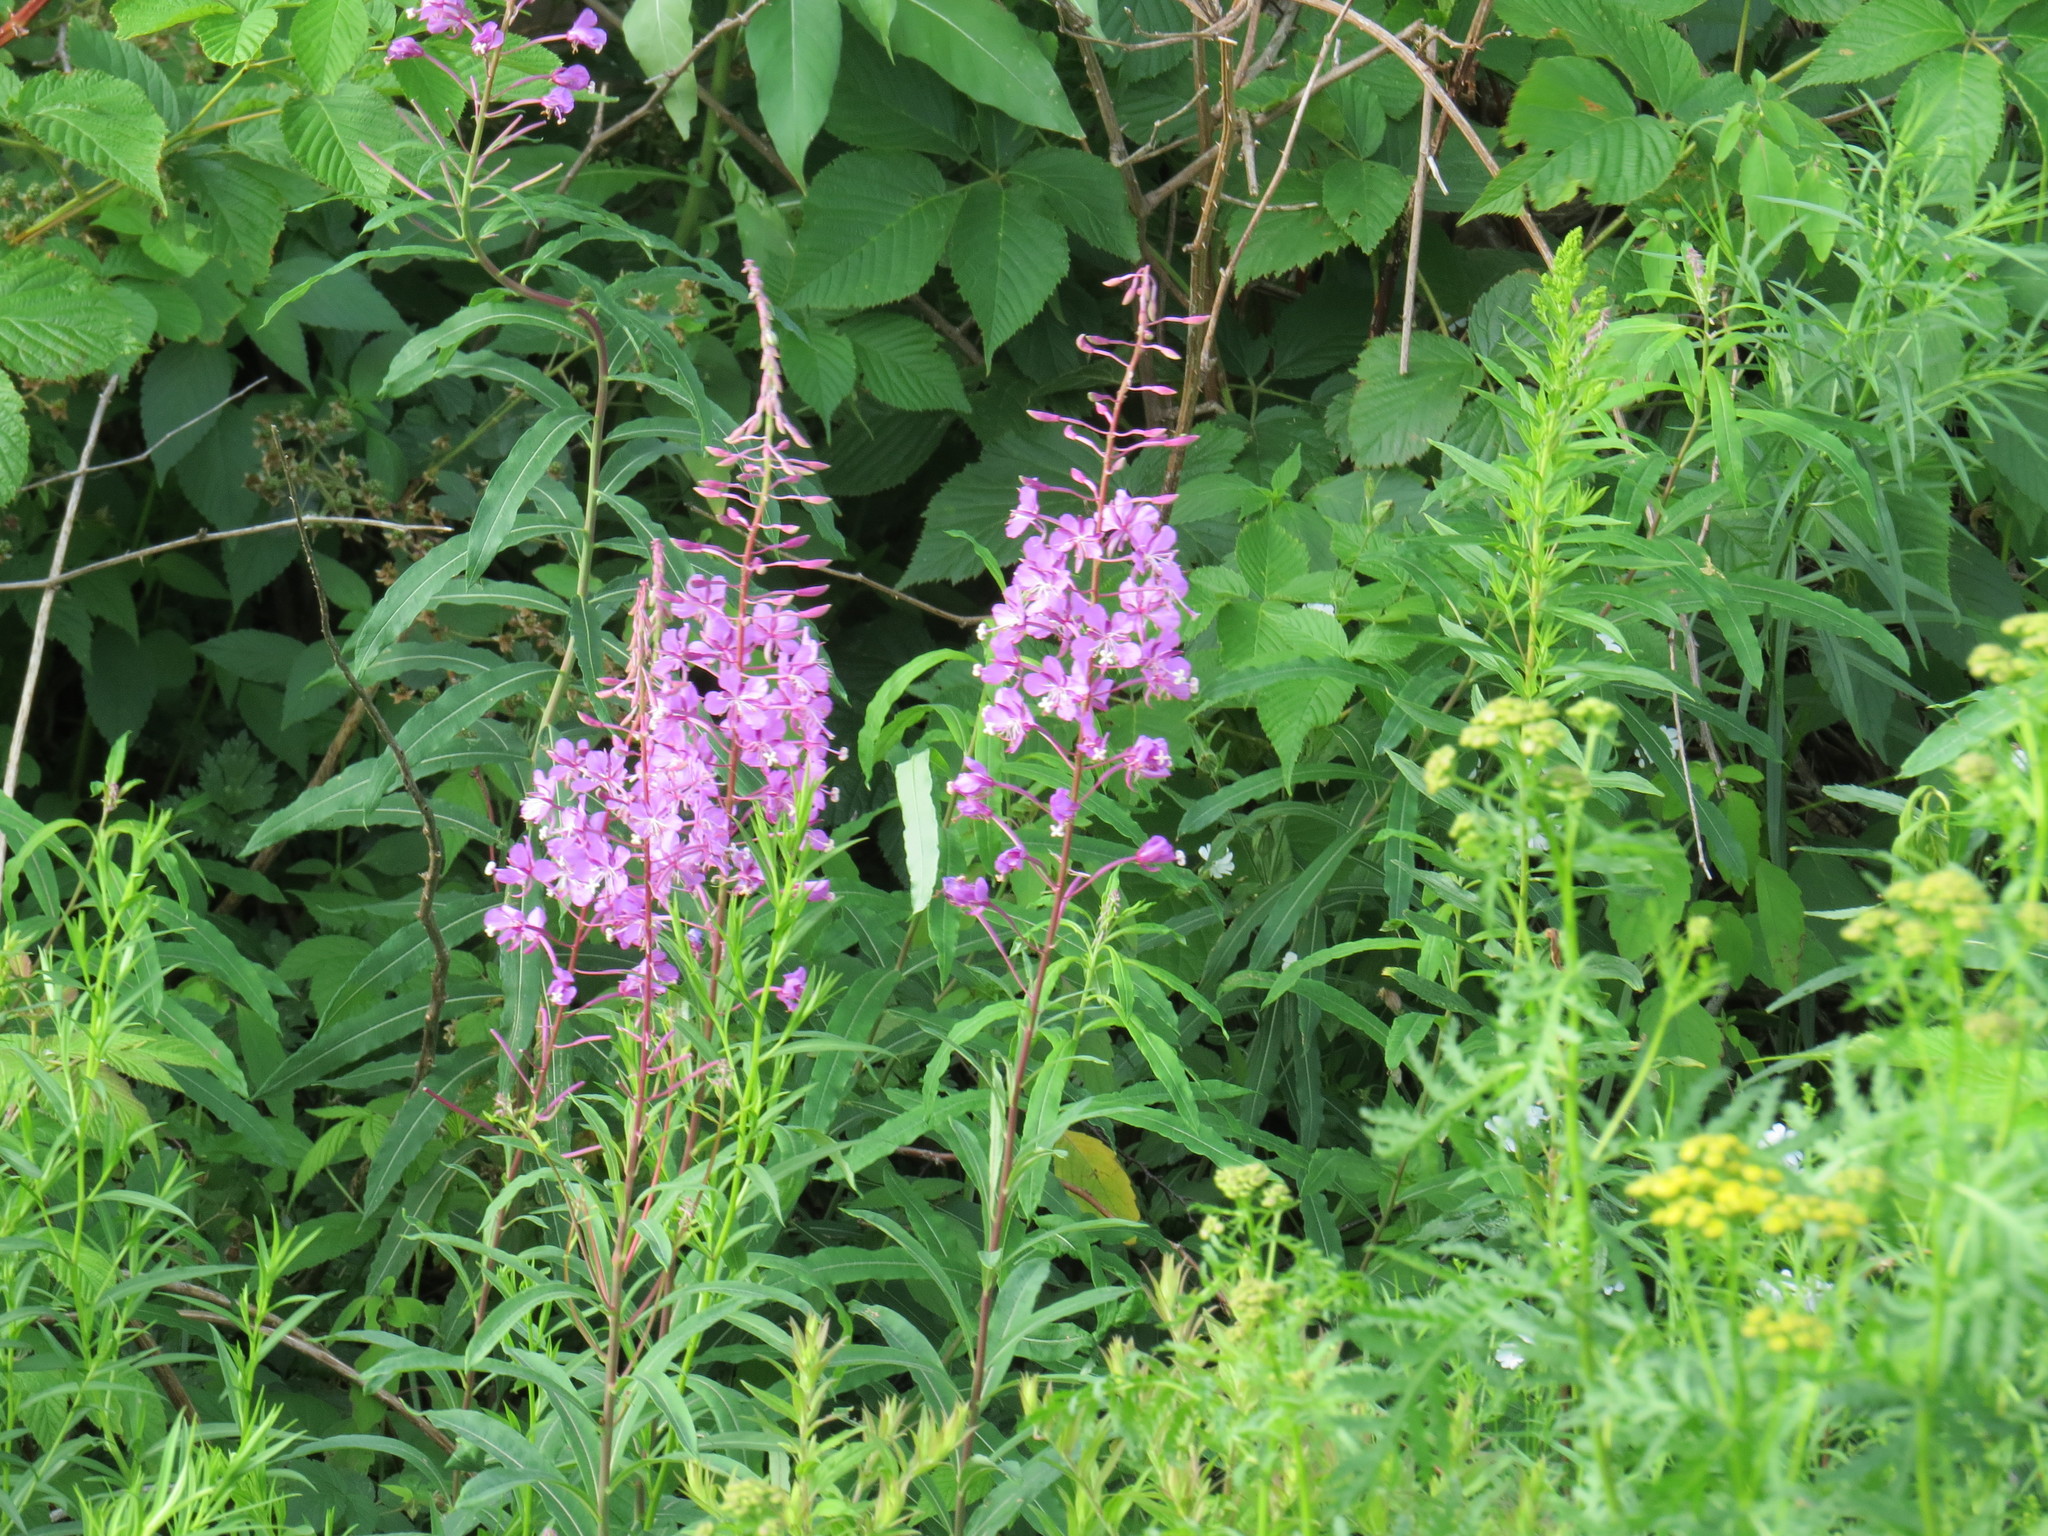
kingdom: Plantae
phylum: Tracheophyta
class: Magnoliopsida
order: Myrtales
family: Onagraceae
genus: Chamaenerion
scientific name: Chamaenerion angustifolium
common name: Fireweed
